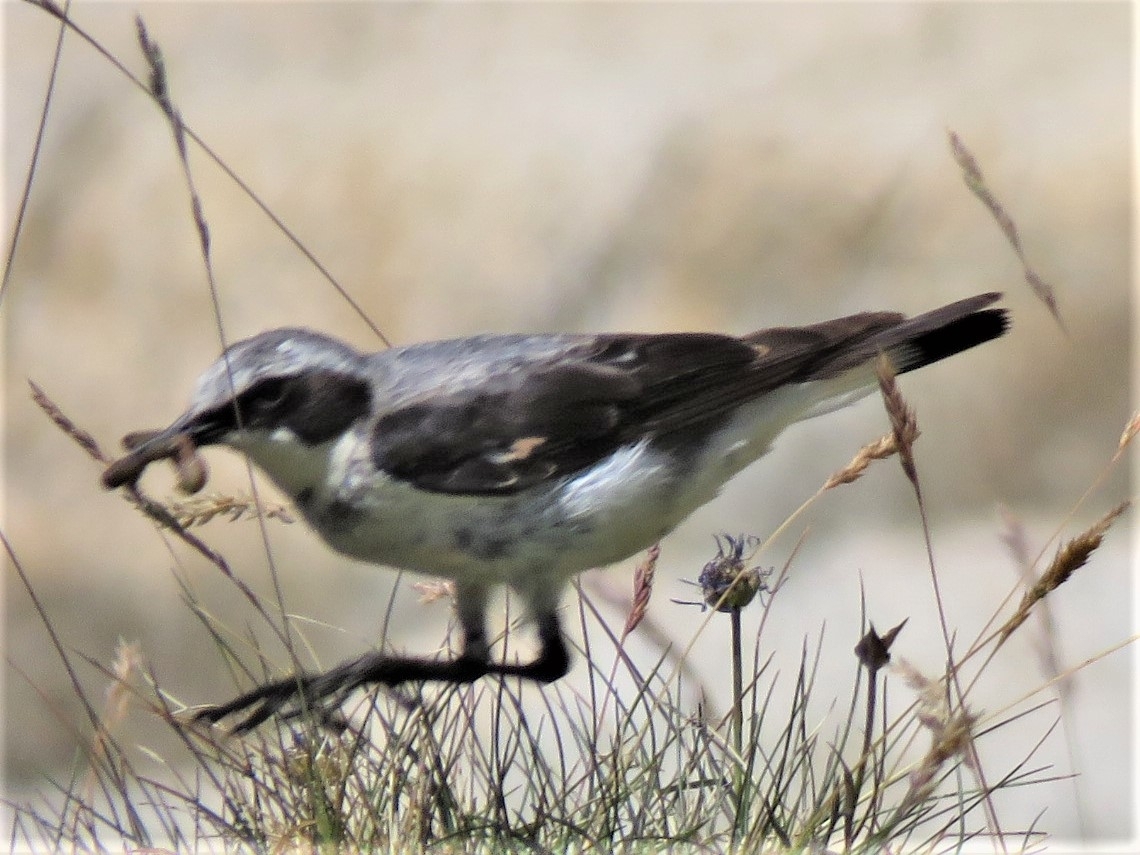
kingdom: Animalia
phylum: Chordata
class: Aves
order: Passeriformes
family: Muscicapidae
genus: Oenanthe
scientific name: Oenanthe oenanthe
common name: Northern wheatear
